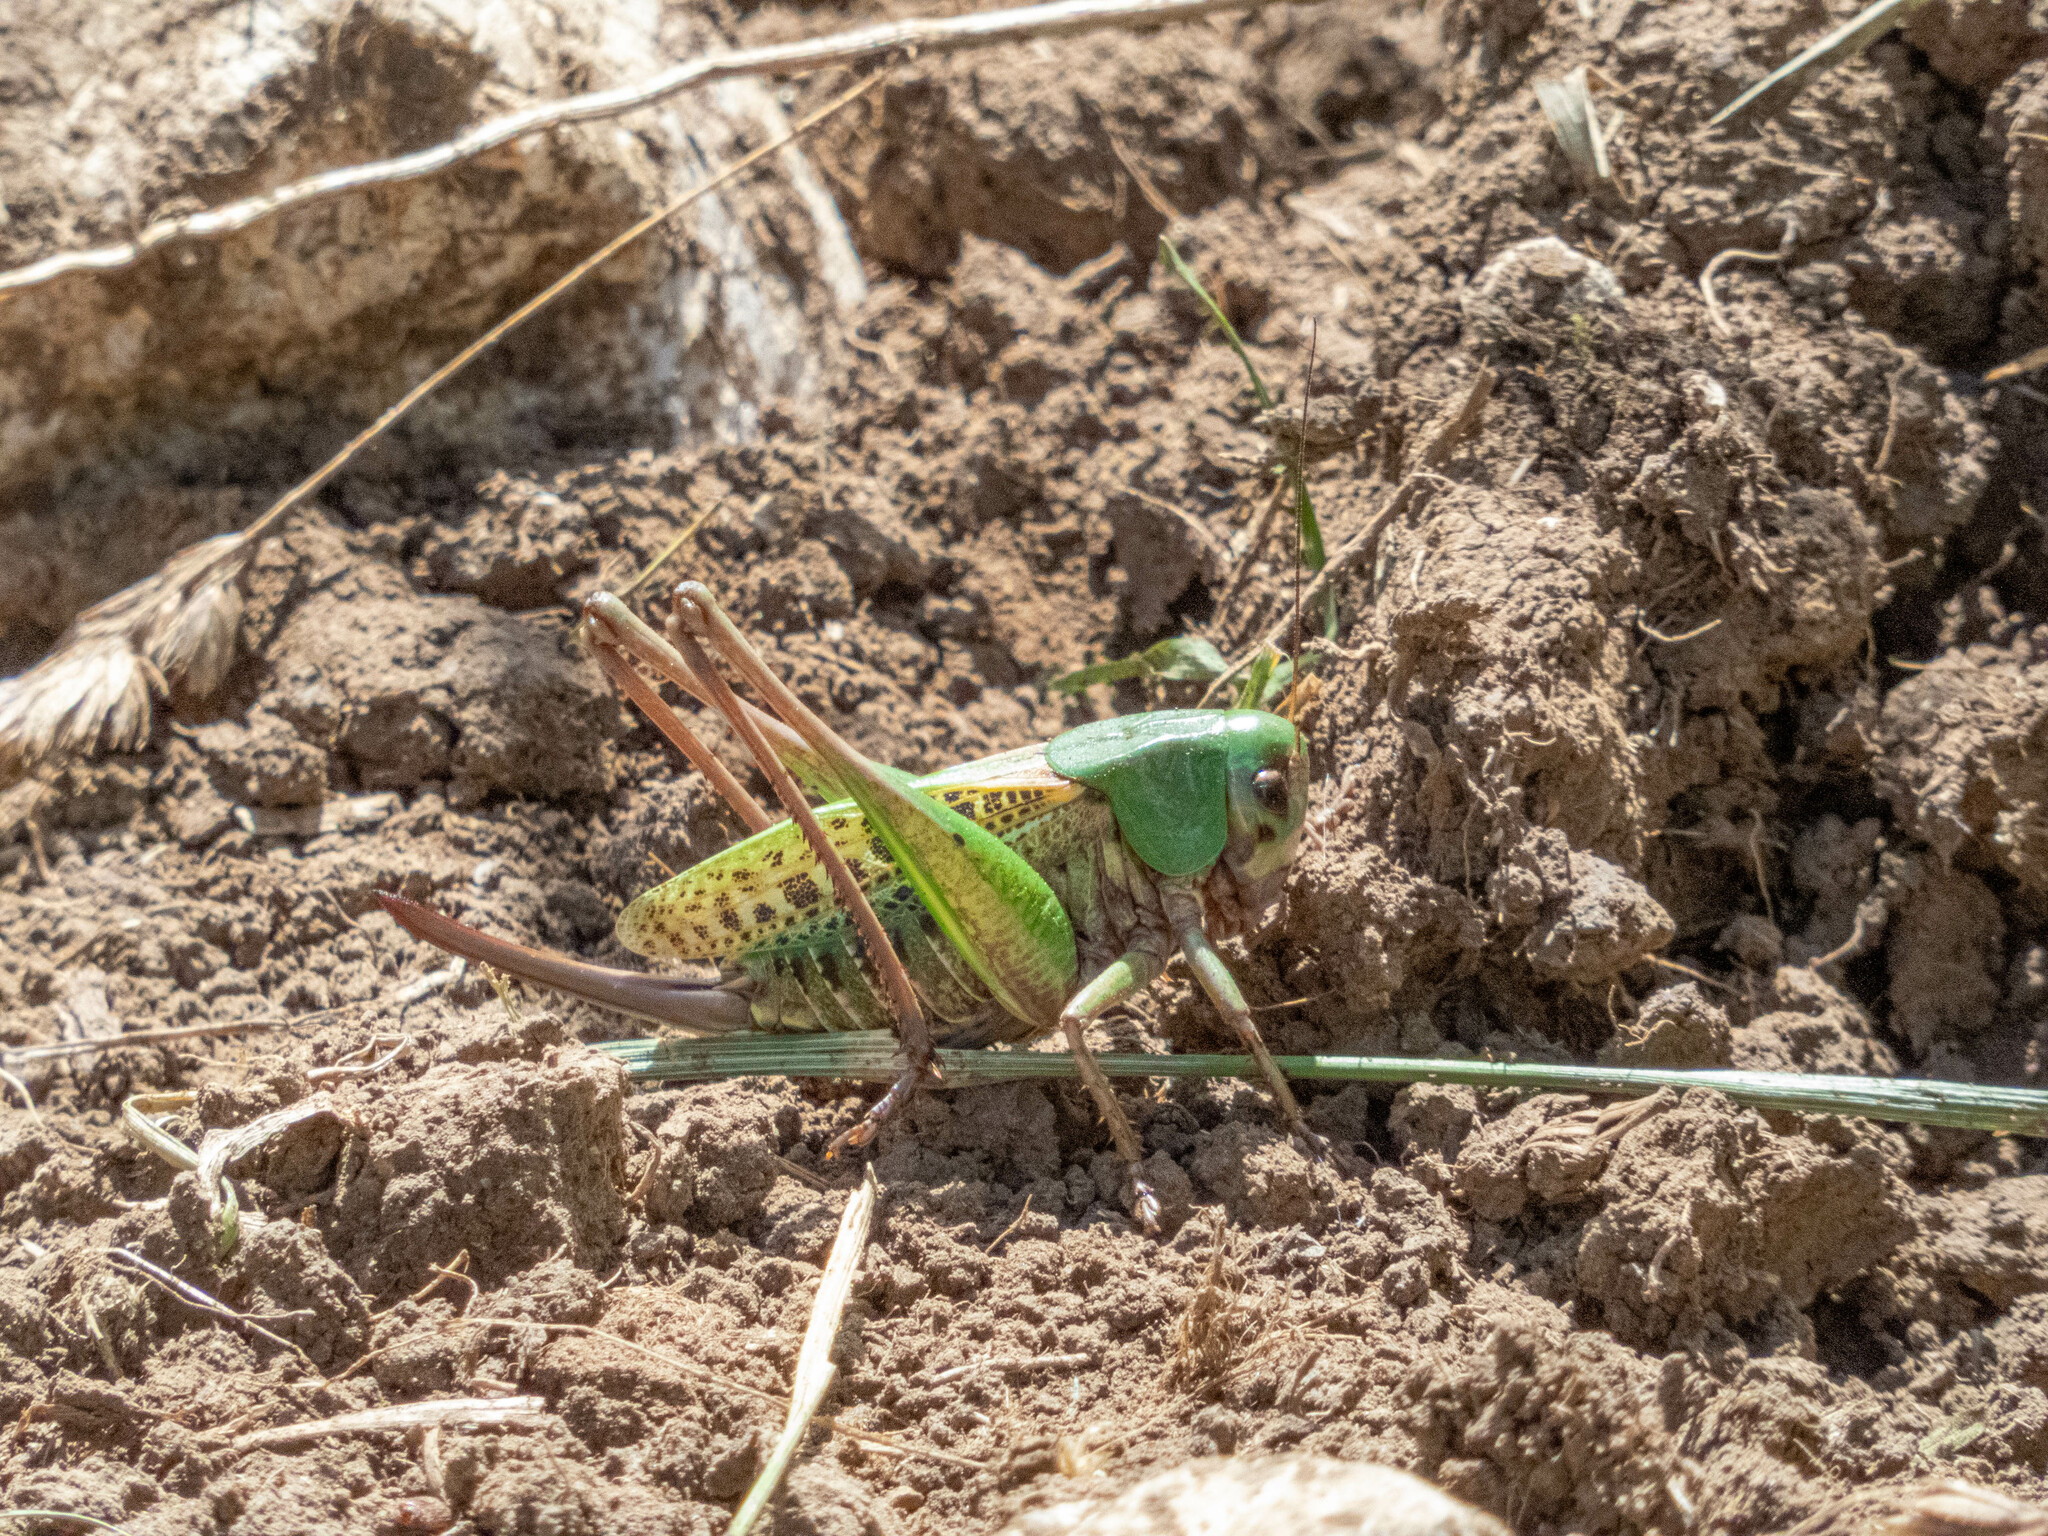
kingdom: Animalia
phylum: Arthropoda
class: Insecta
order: Orthoptera
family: Tettigoniidae
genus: Decticus
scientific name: Decticus verrucivorus
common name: Wart-biter
